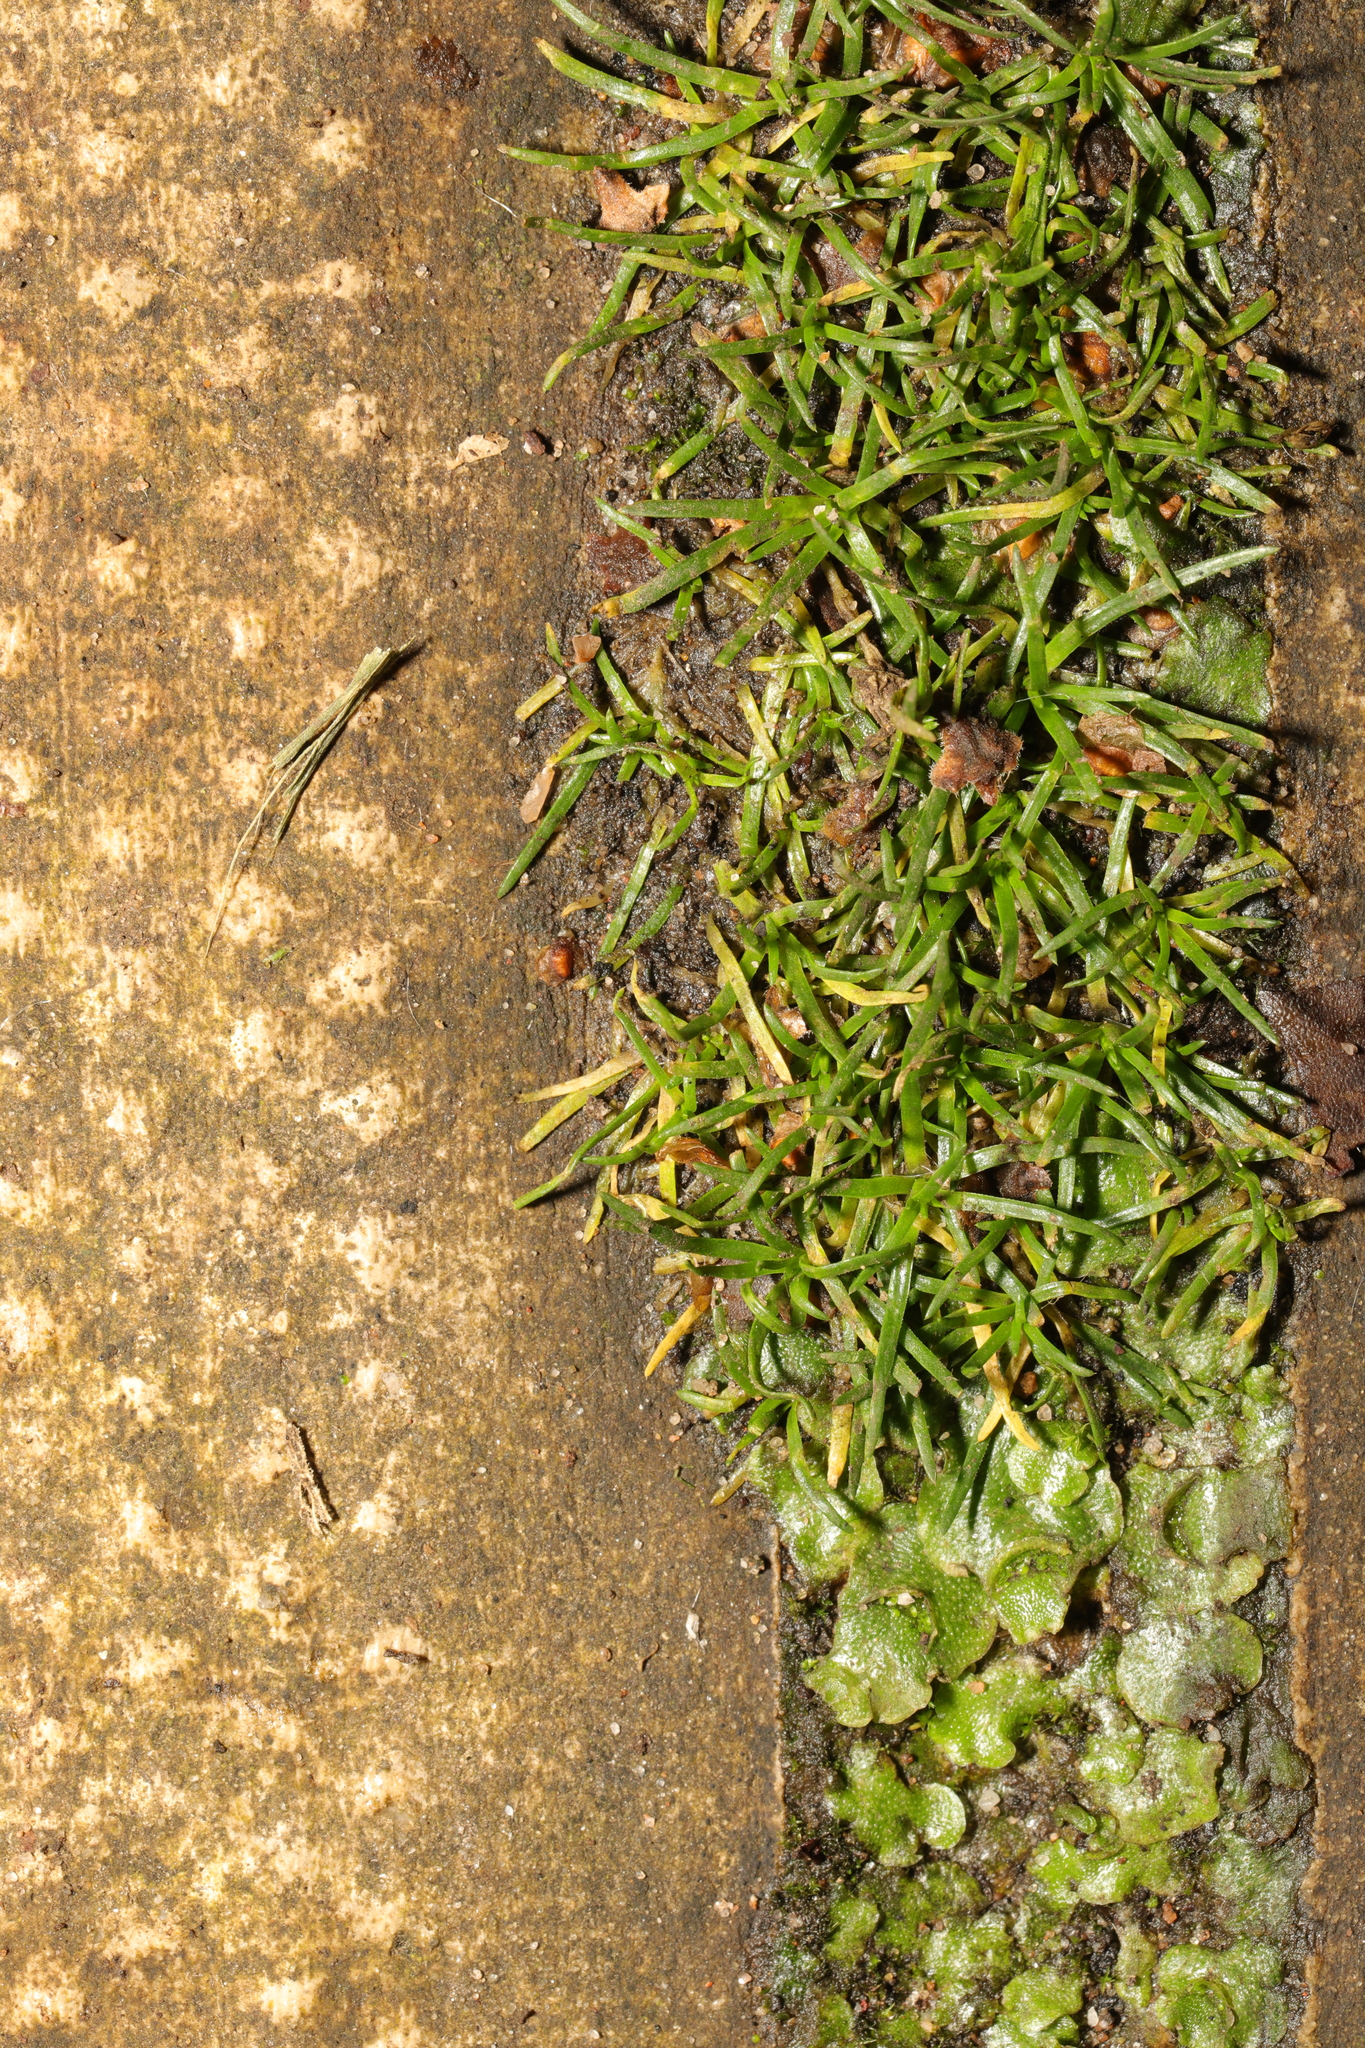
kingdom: Plantae
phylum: Tracheophyta
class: Magnoliopsida
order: Caryophyllales
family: Caryophyllaceae
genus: Sagina
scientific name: Sagina procumbens
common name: Procumbent pearlwort
